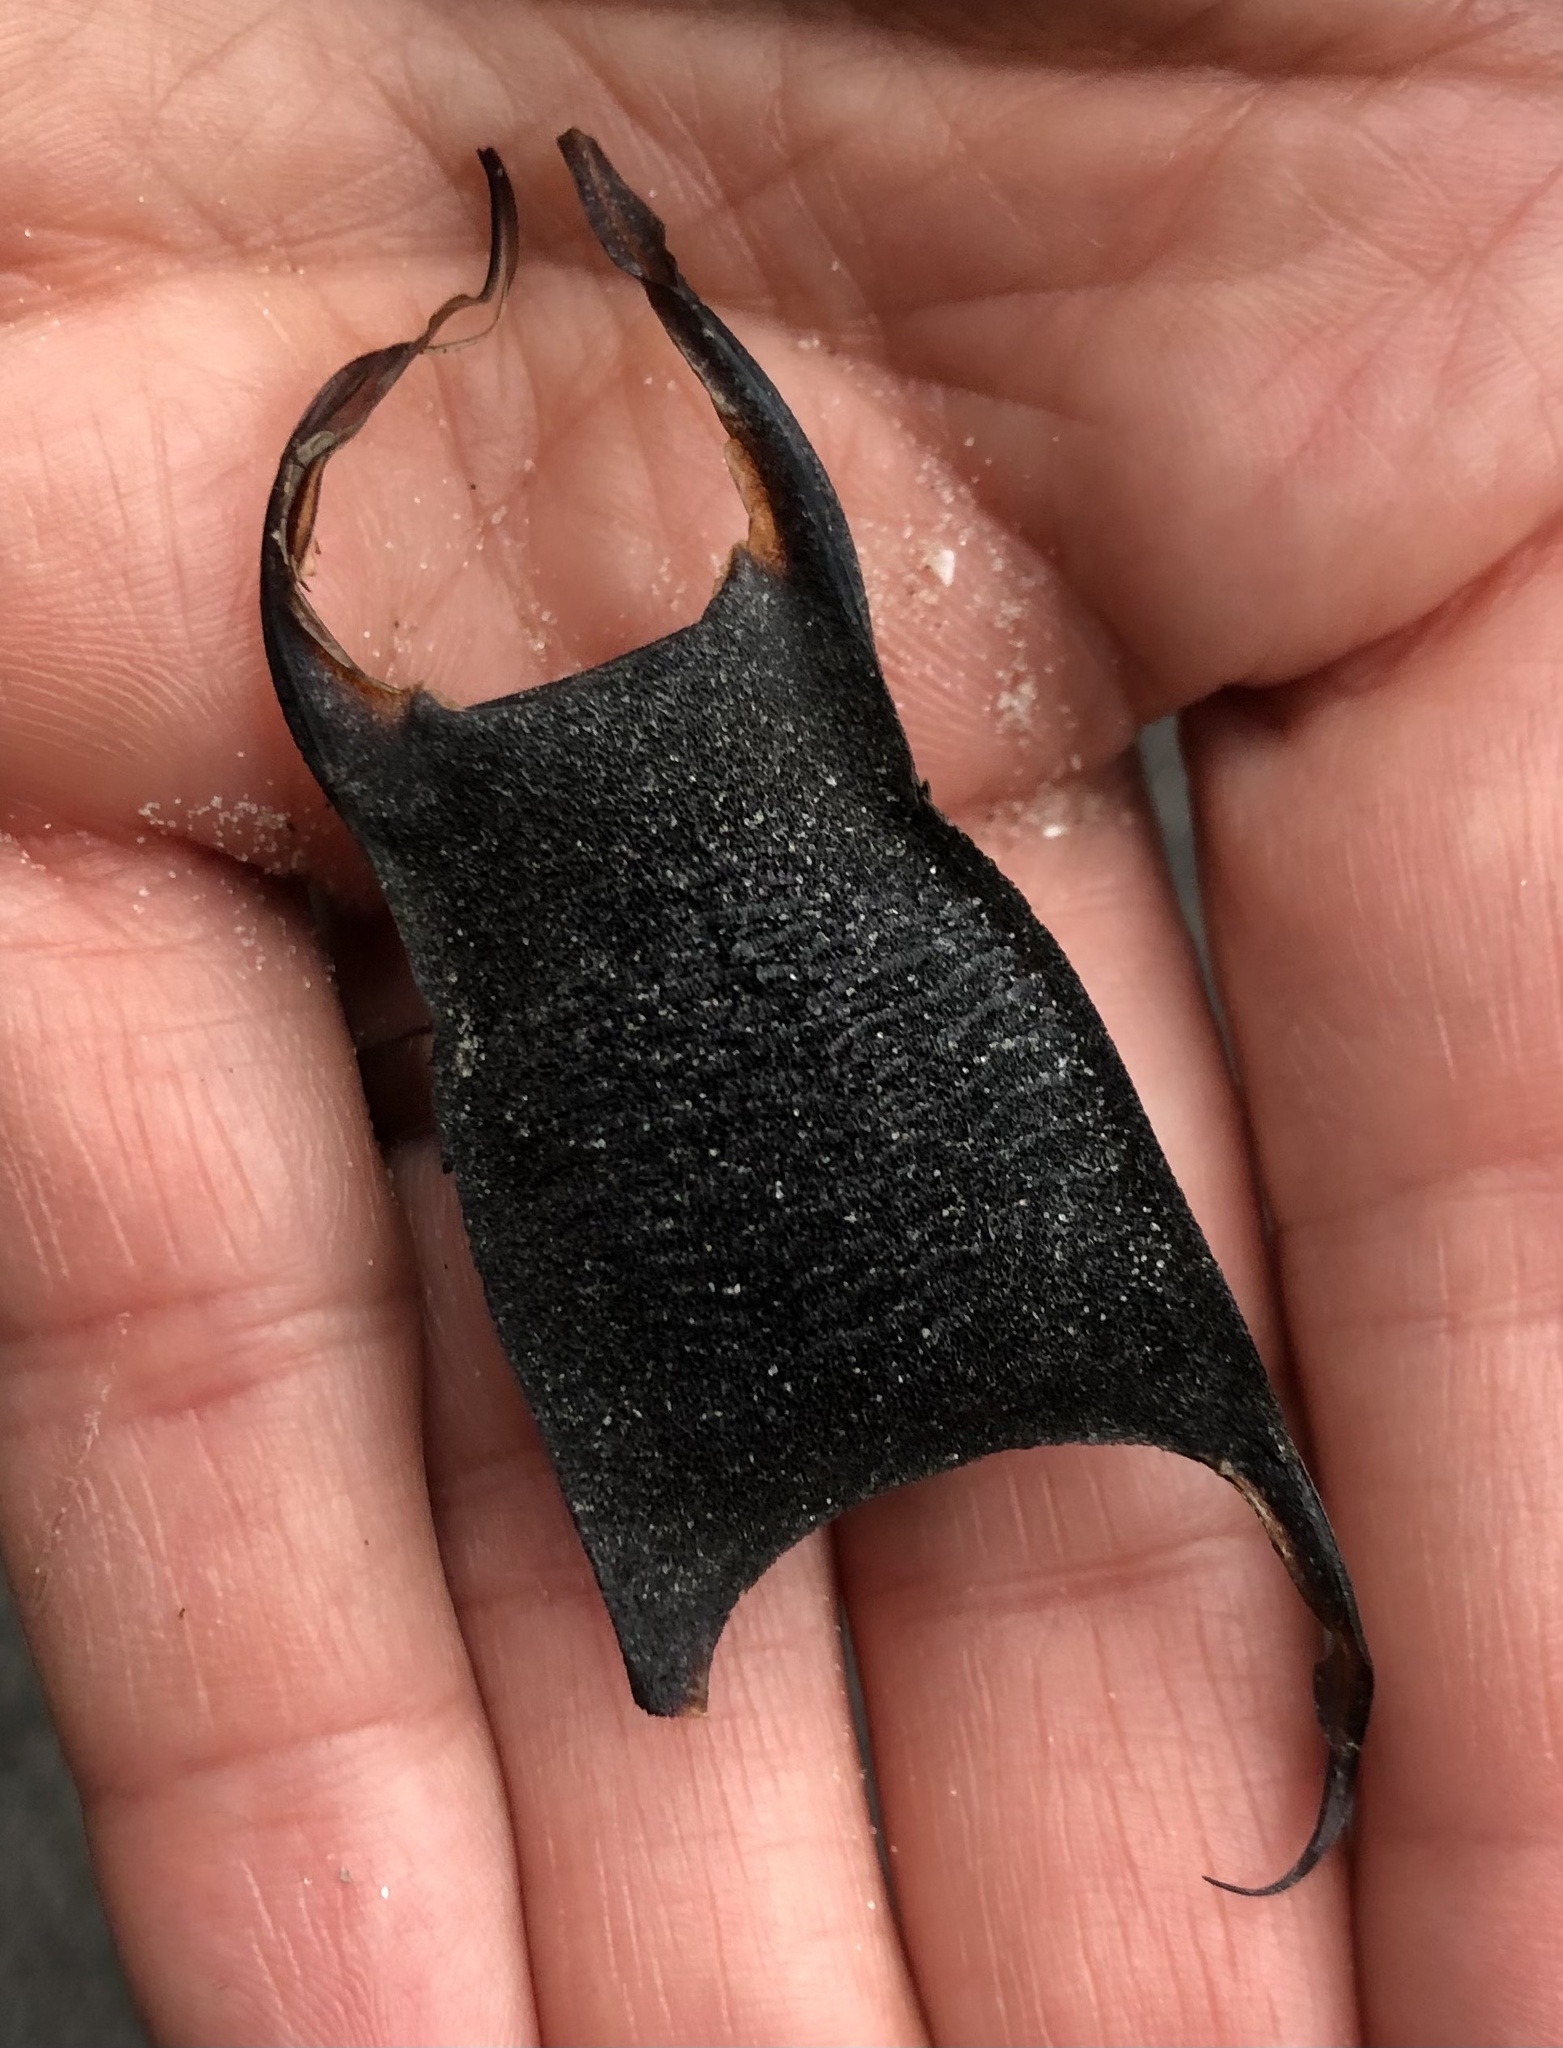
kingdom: Animalia
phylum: Chordata
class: Elasmobranchii
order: Rajiformes
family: Rajidae
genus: Amblyraja
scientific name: Amblyraja radiata
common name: Starry ray
